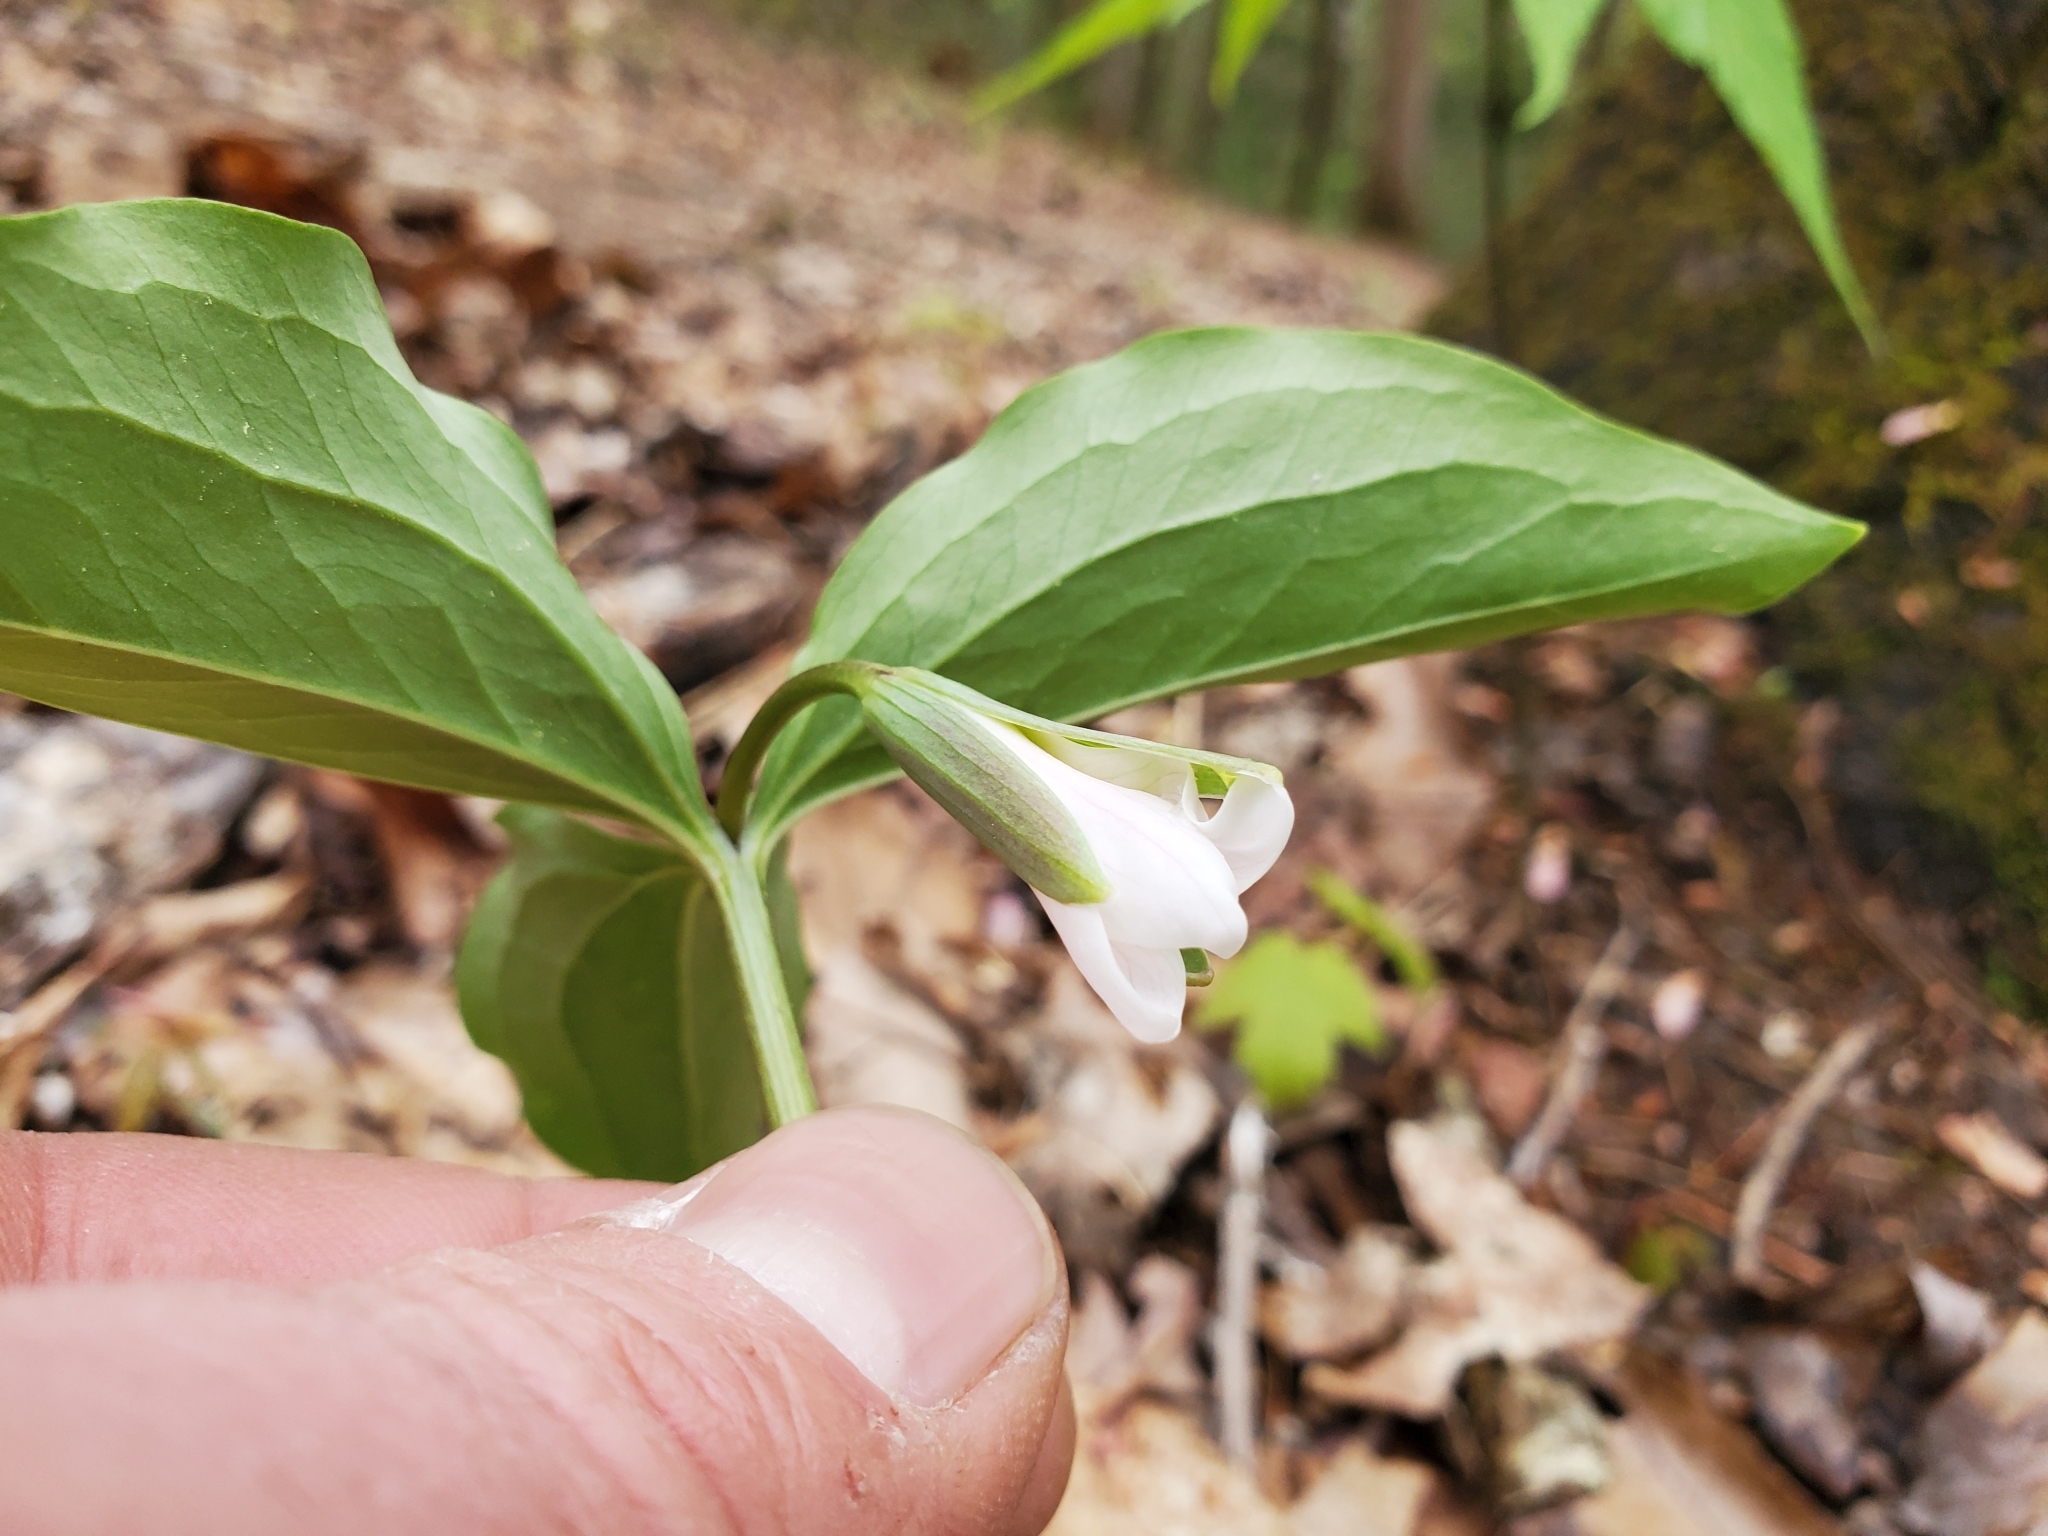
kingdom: Plantae
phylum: Tracheophyta
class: Liliopsida
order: Liliales
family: Melanthiaceae
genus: Trillium
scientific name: Trillium catesbaei
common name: Bashful trillium
